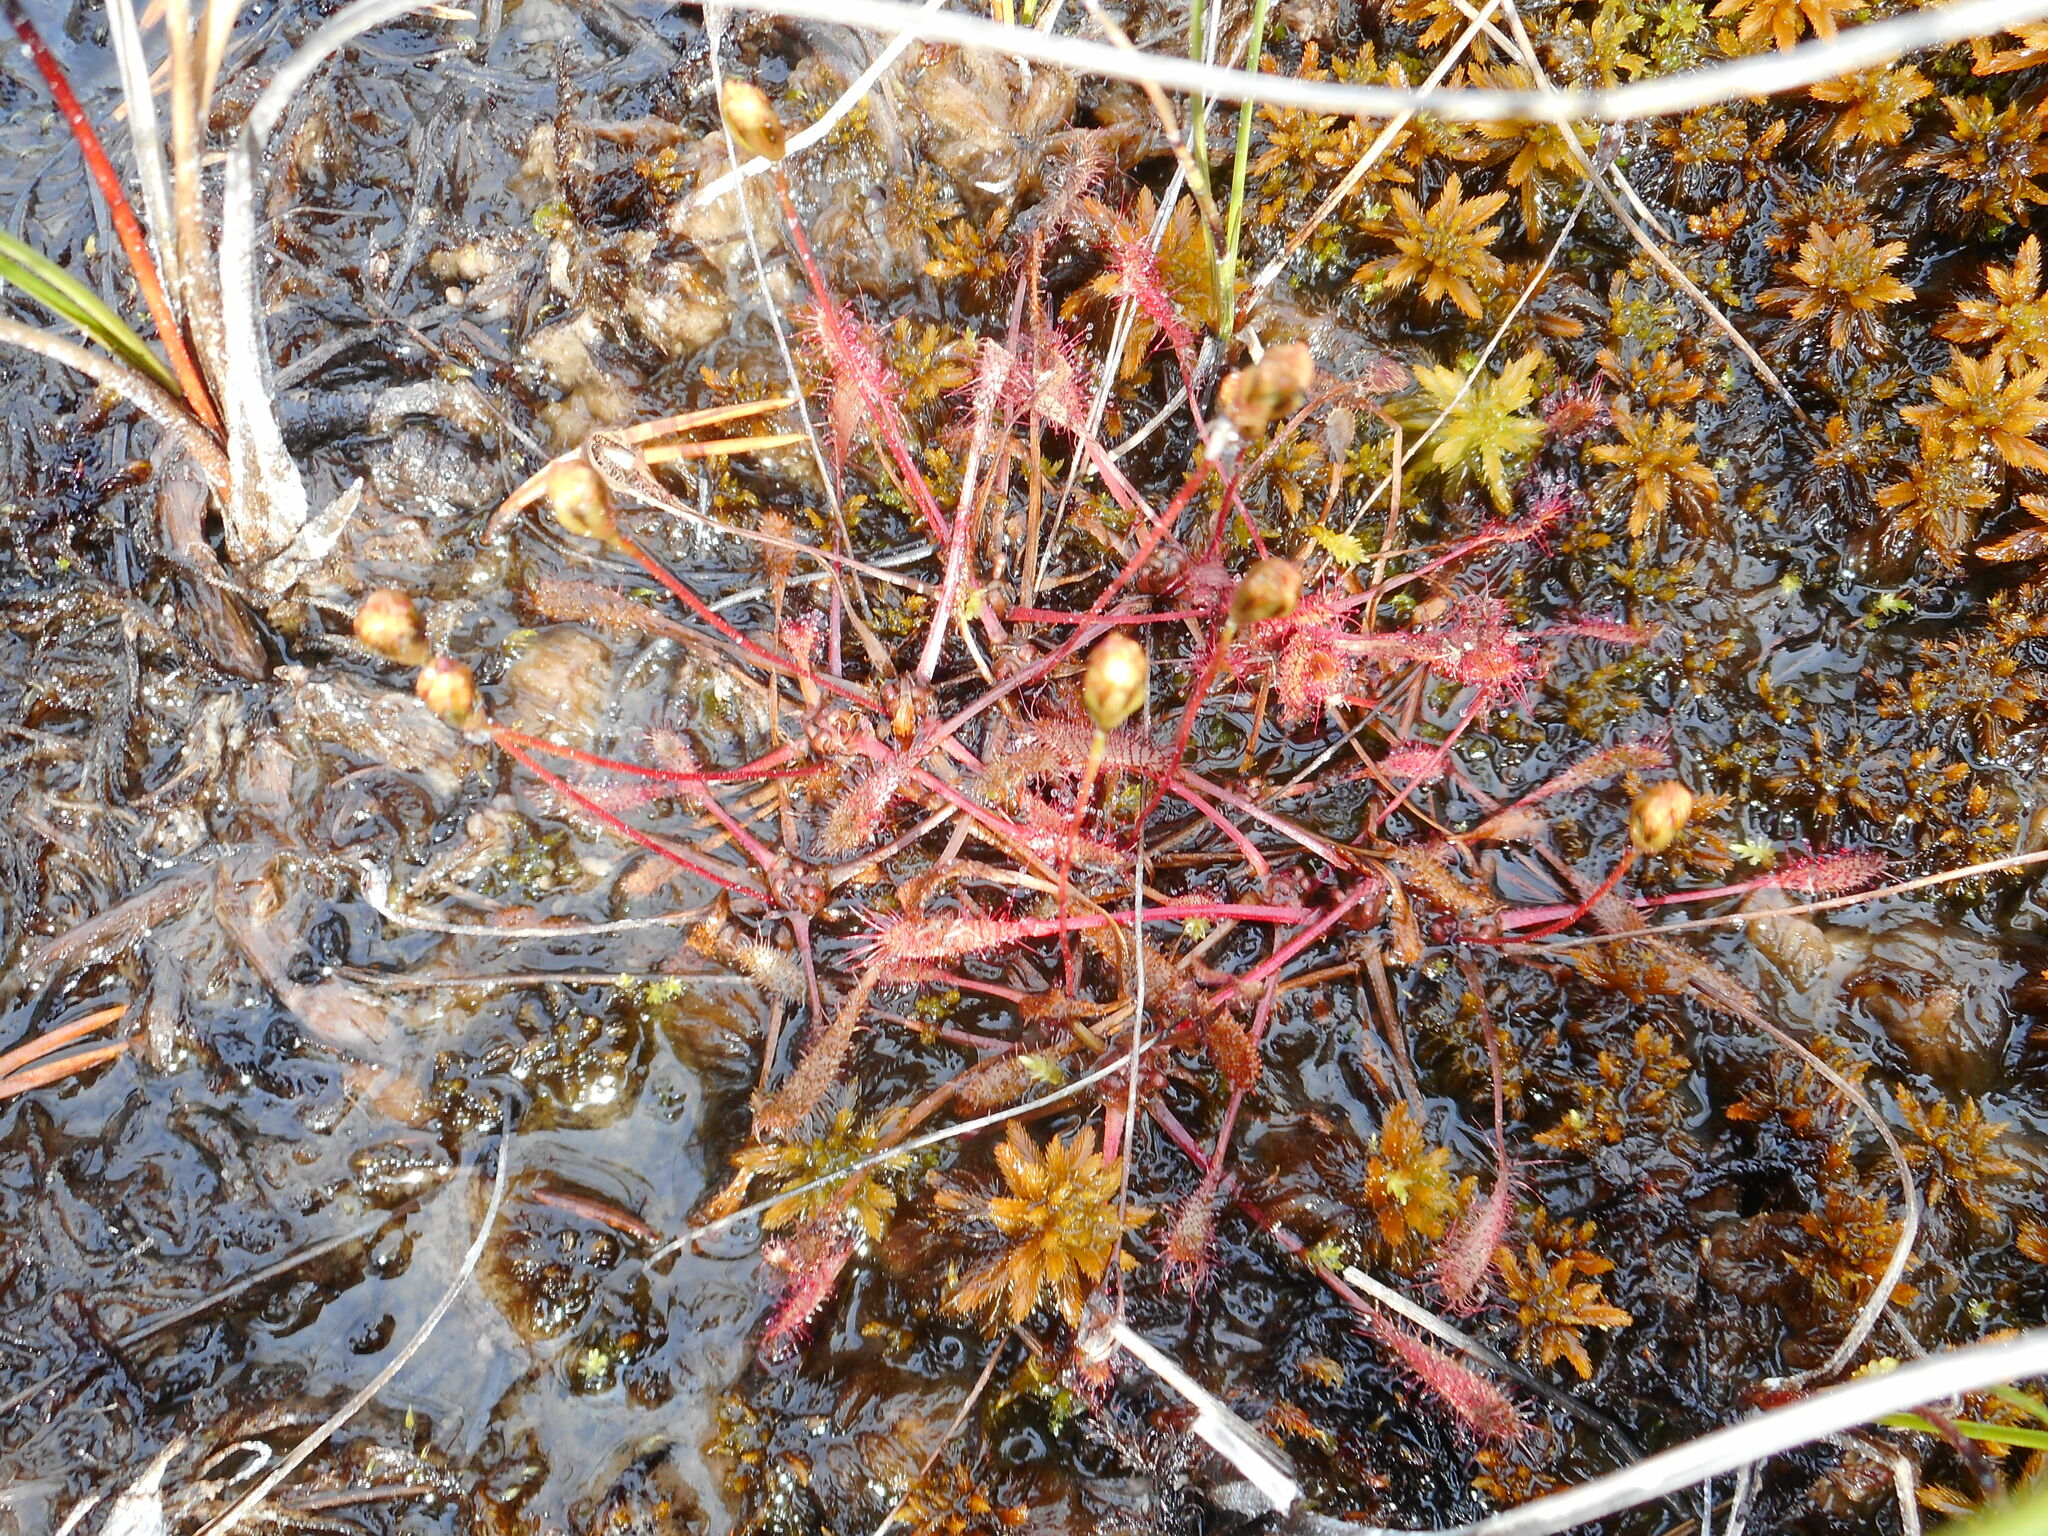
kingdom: Plantae
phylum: Tracheophyta
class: Magnoliopsida
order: Caryophyllales
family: Droseraceae
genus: Drosera
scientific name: Drosera anglica
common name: Great sundew
